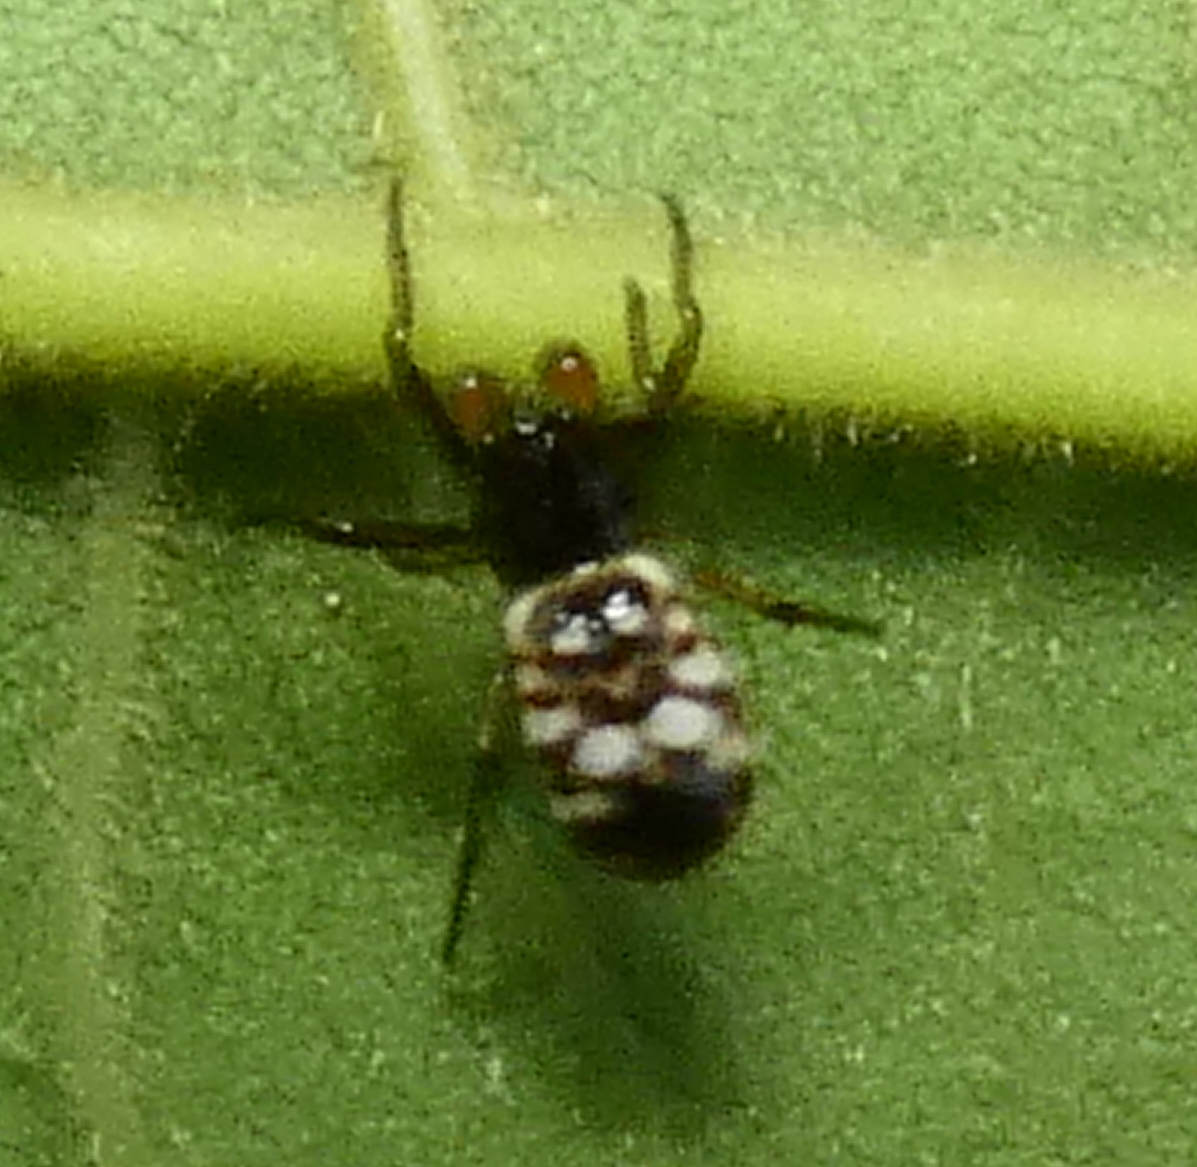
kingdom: Animalia
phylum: Arthropoda
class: Arachnida
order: Araneae
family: Araneidae
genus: Micrathena
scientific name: Micrathena patruelis
